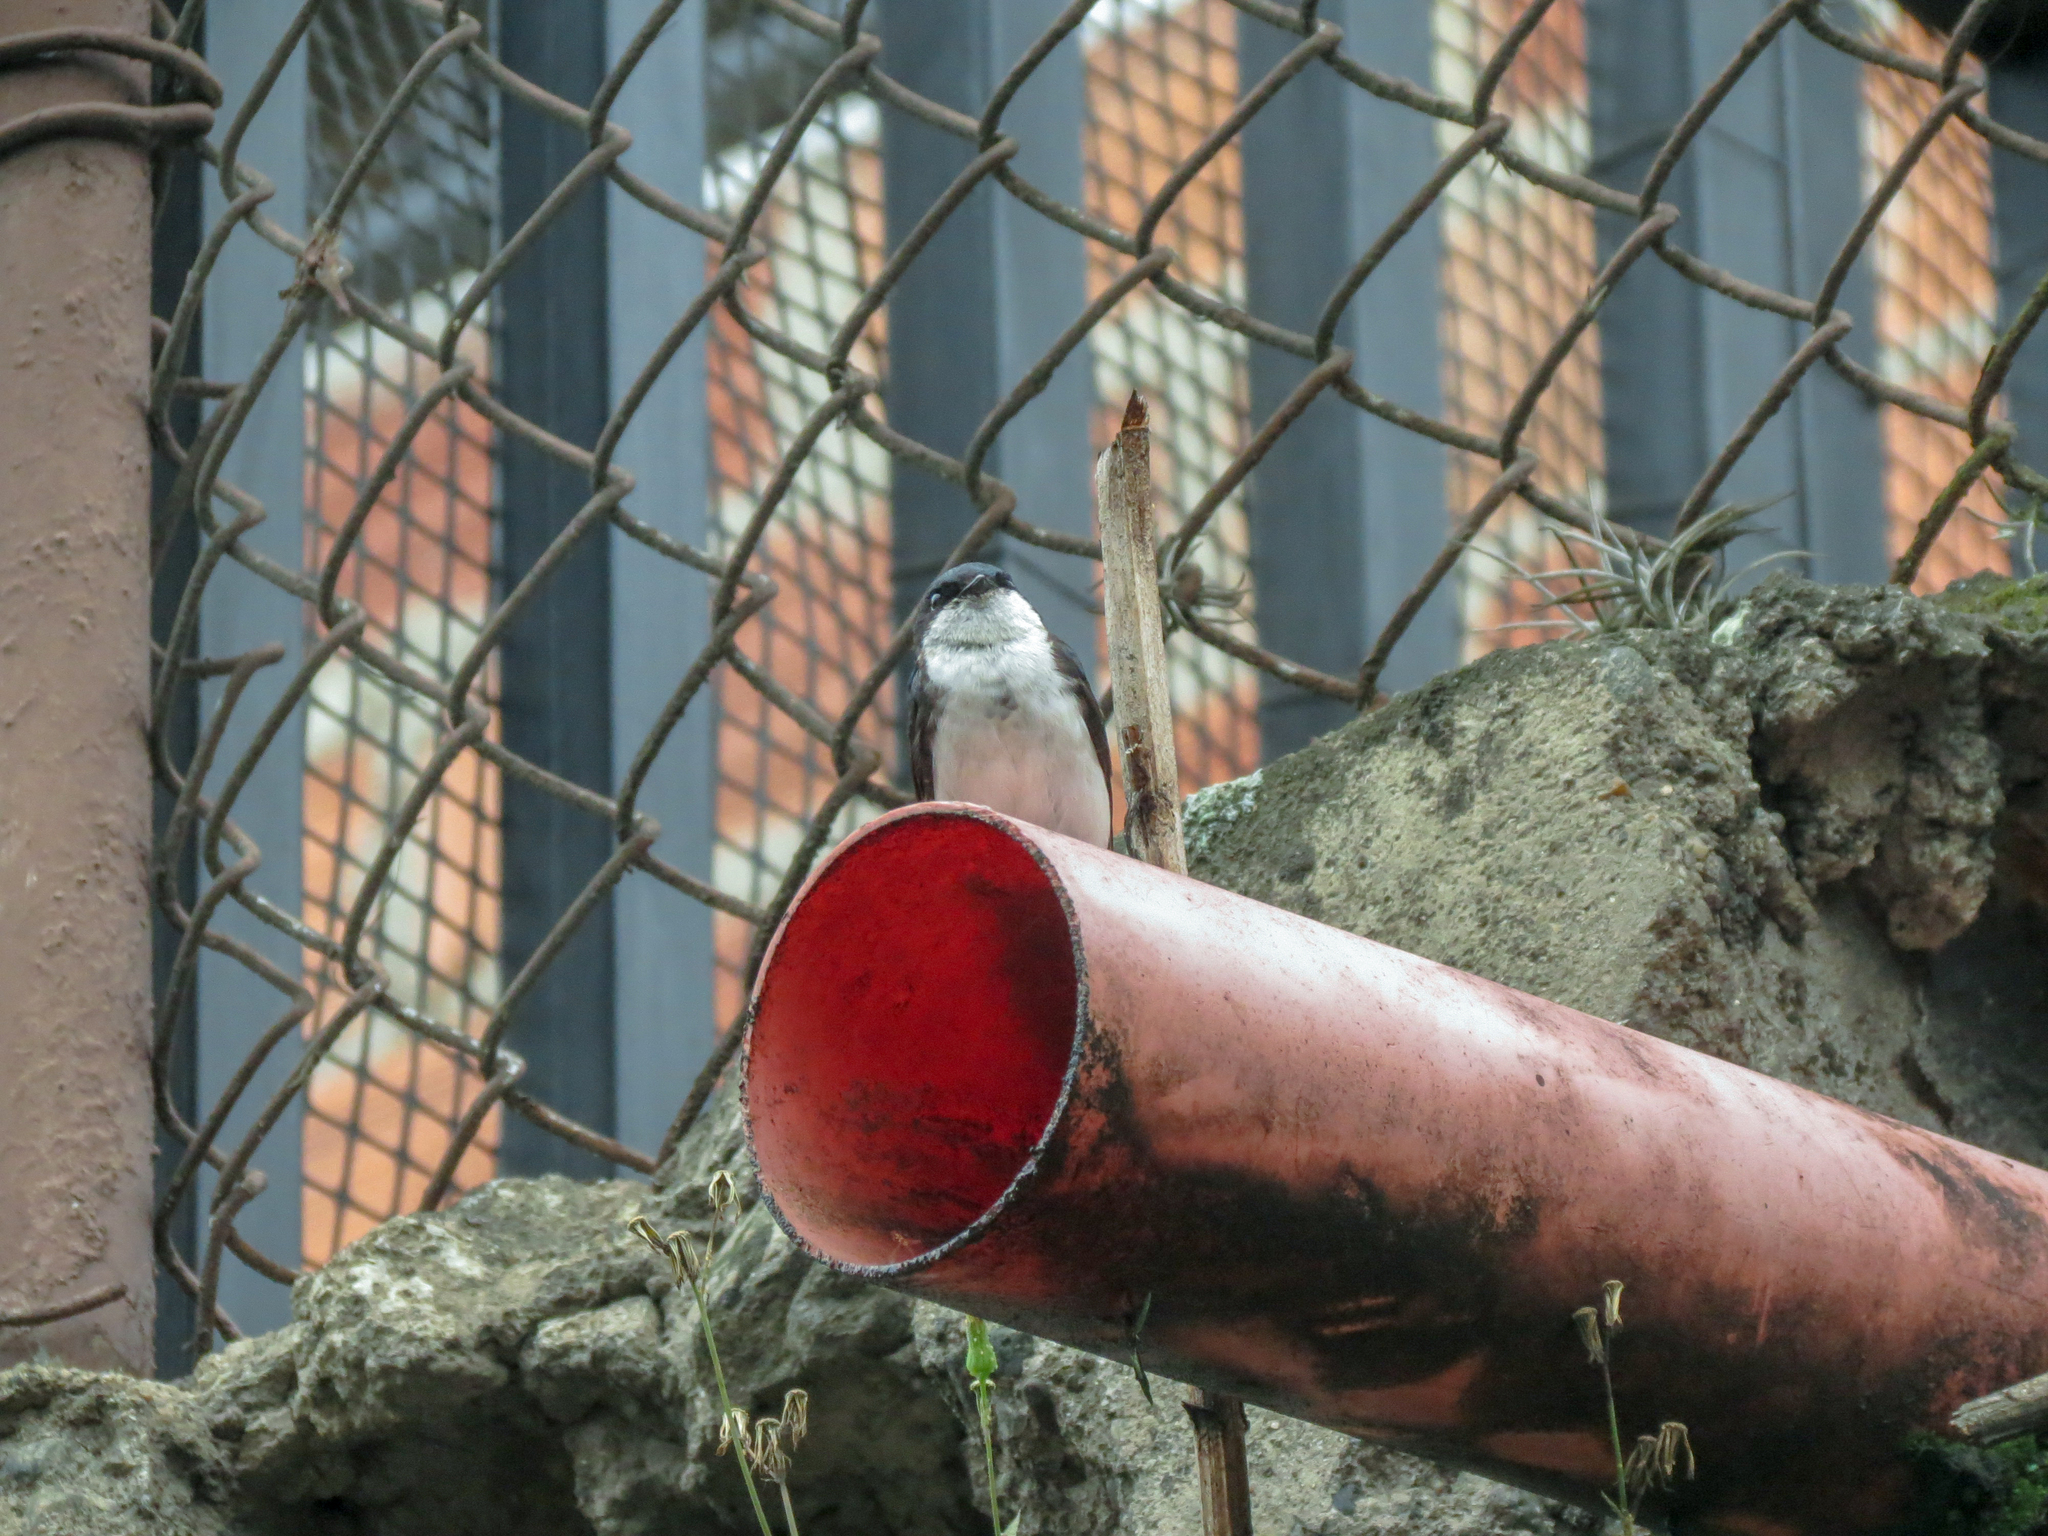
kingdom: Animalia
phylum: Chordata
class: Aves
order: Passeriformes
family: Hirundinidae
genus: Notiochelidon
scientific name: Notiochelidon cyanoleuca
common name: Blue-and-white swallow
